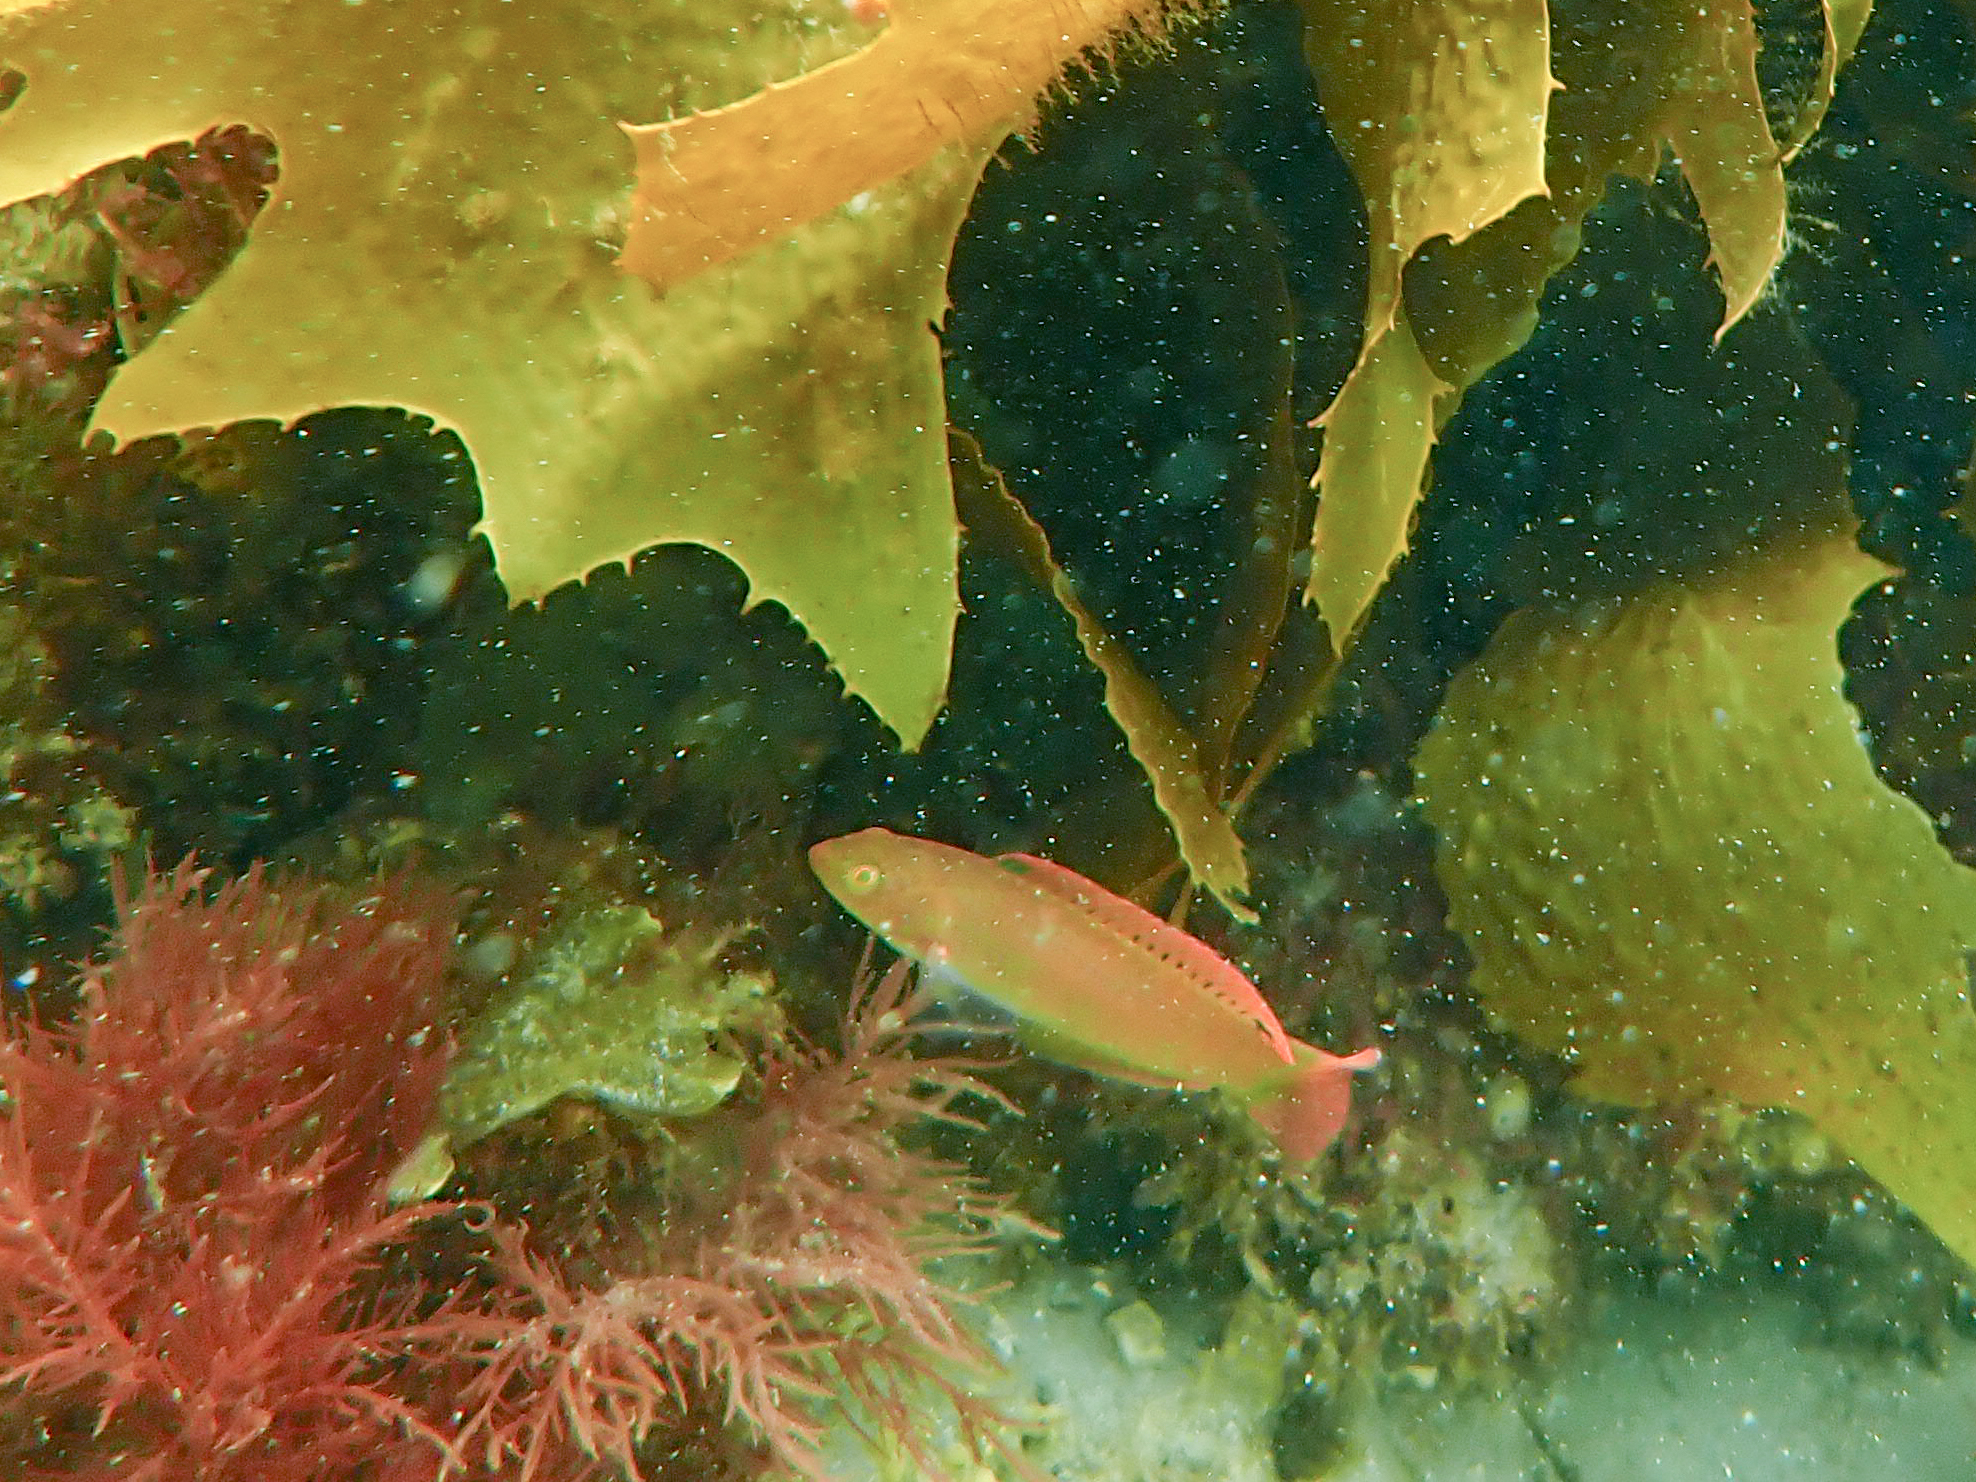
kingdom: Animalia
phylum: Chordata
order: Perciformes
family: Labridae
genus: Pictilabrus
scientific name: Pictilabrus laticlavius
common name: Patrician wrasse
